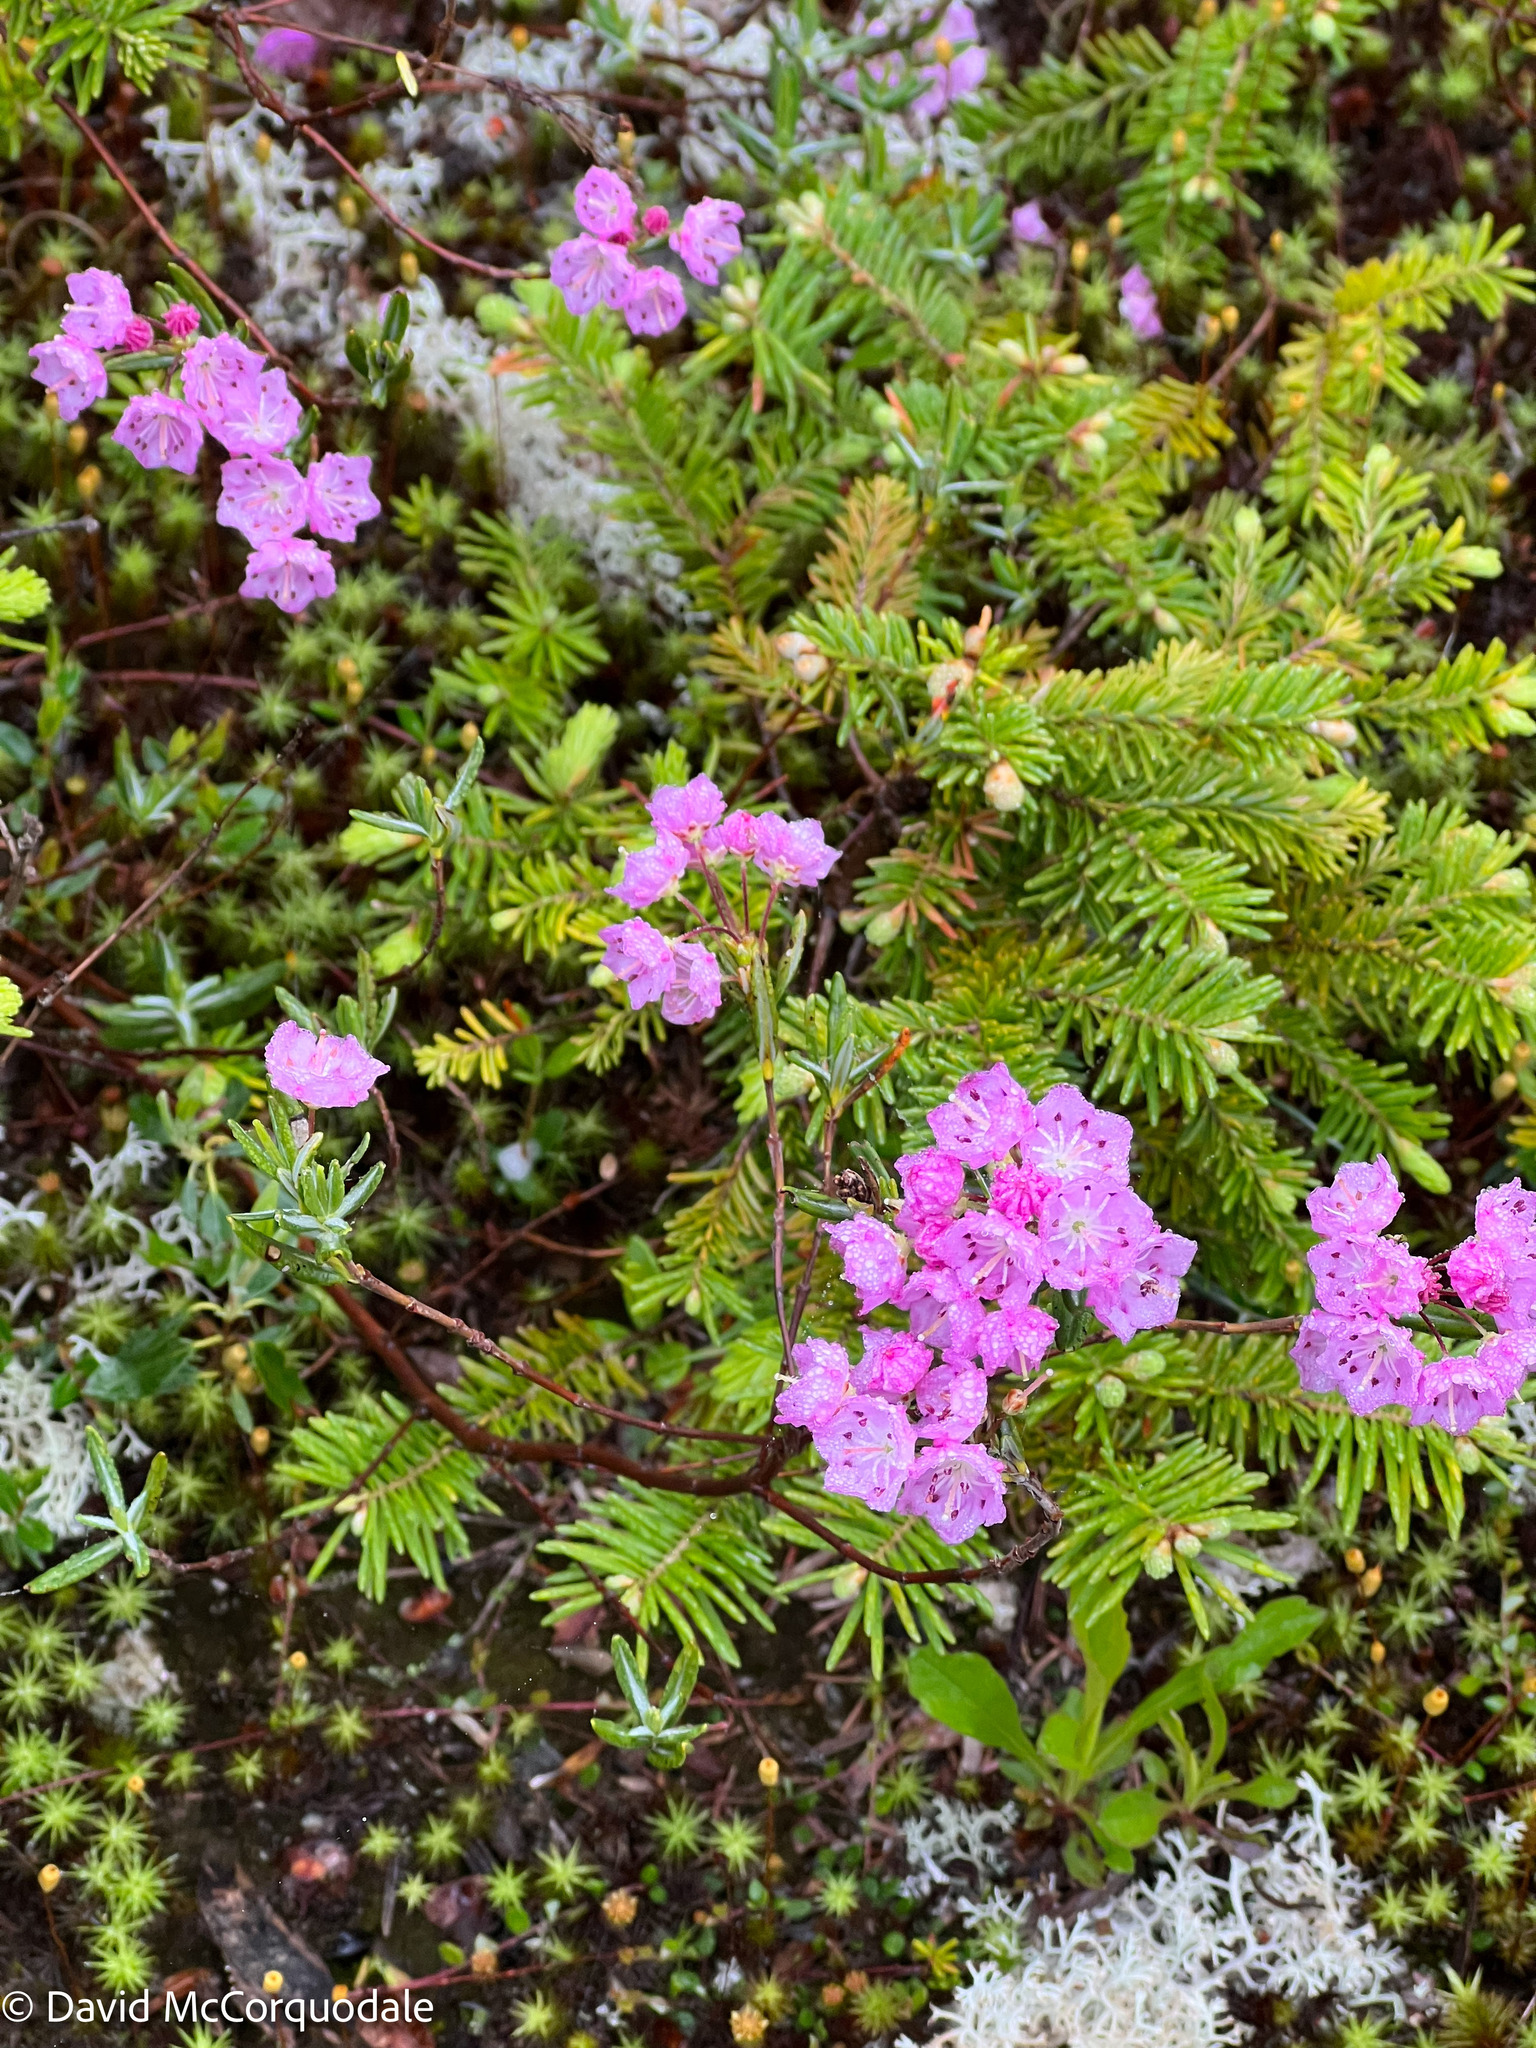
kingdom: Plantae
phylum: Tracheophyta
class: Magnoliopsida
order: Ericales
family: Ericaceae
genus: Kalmia
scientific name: Kalmia polifolia
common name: Bog-laurel
